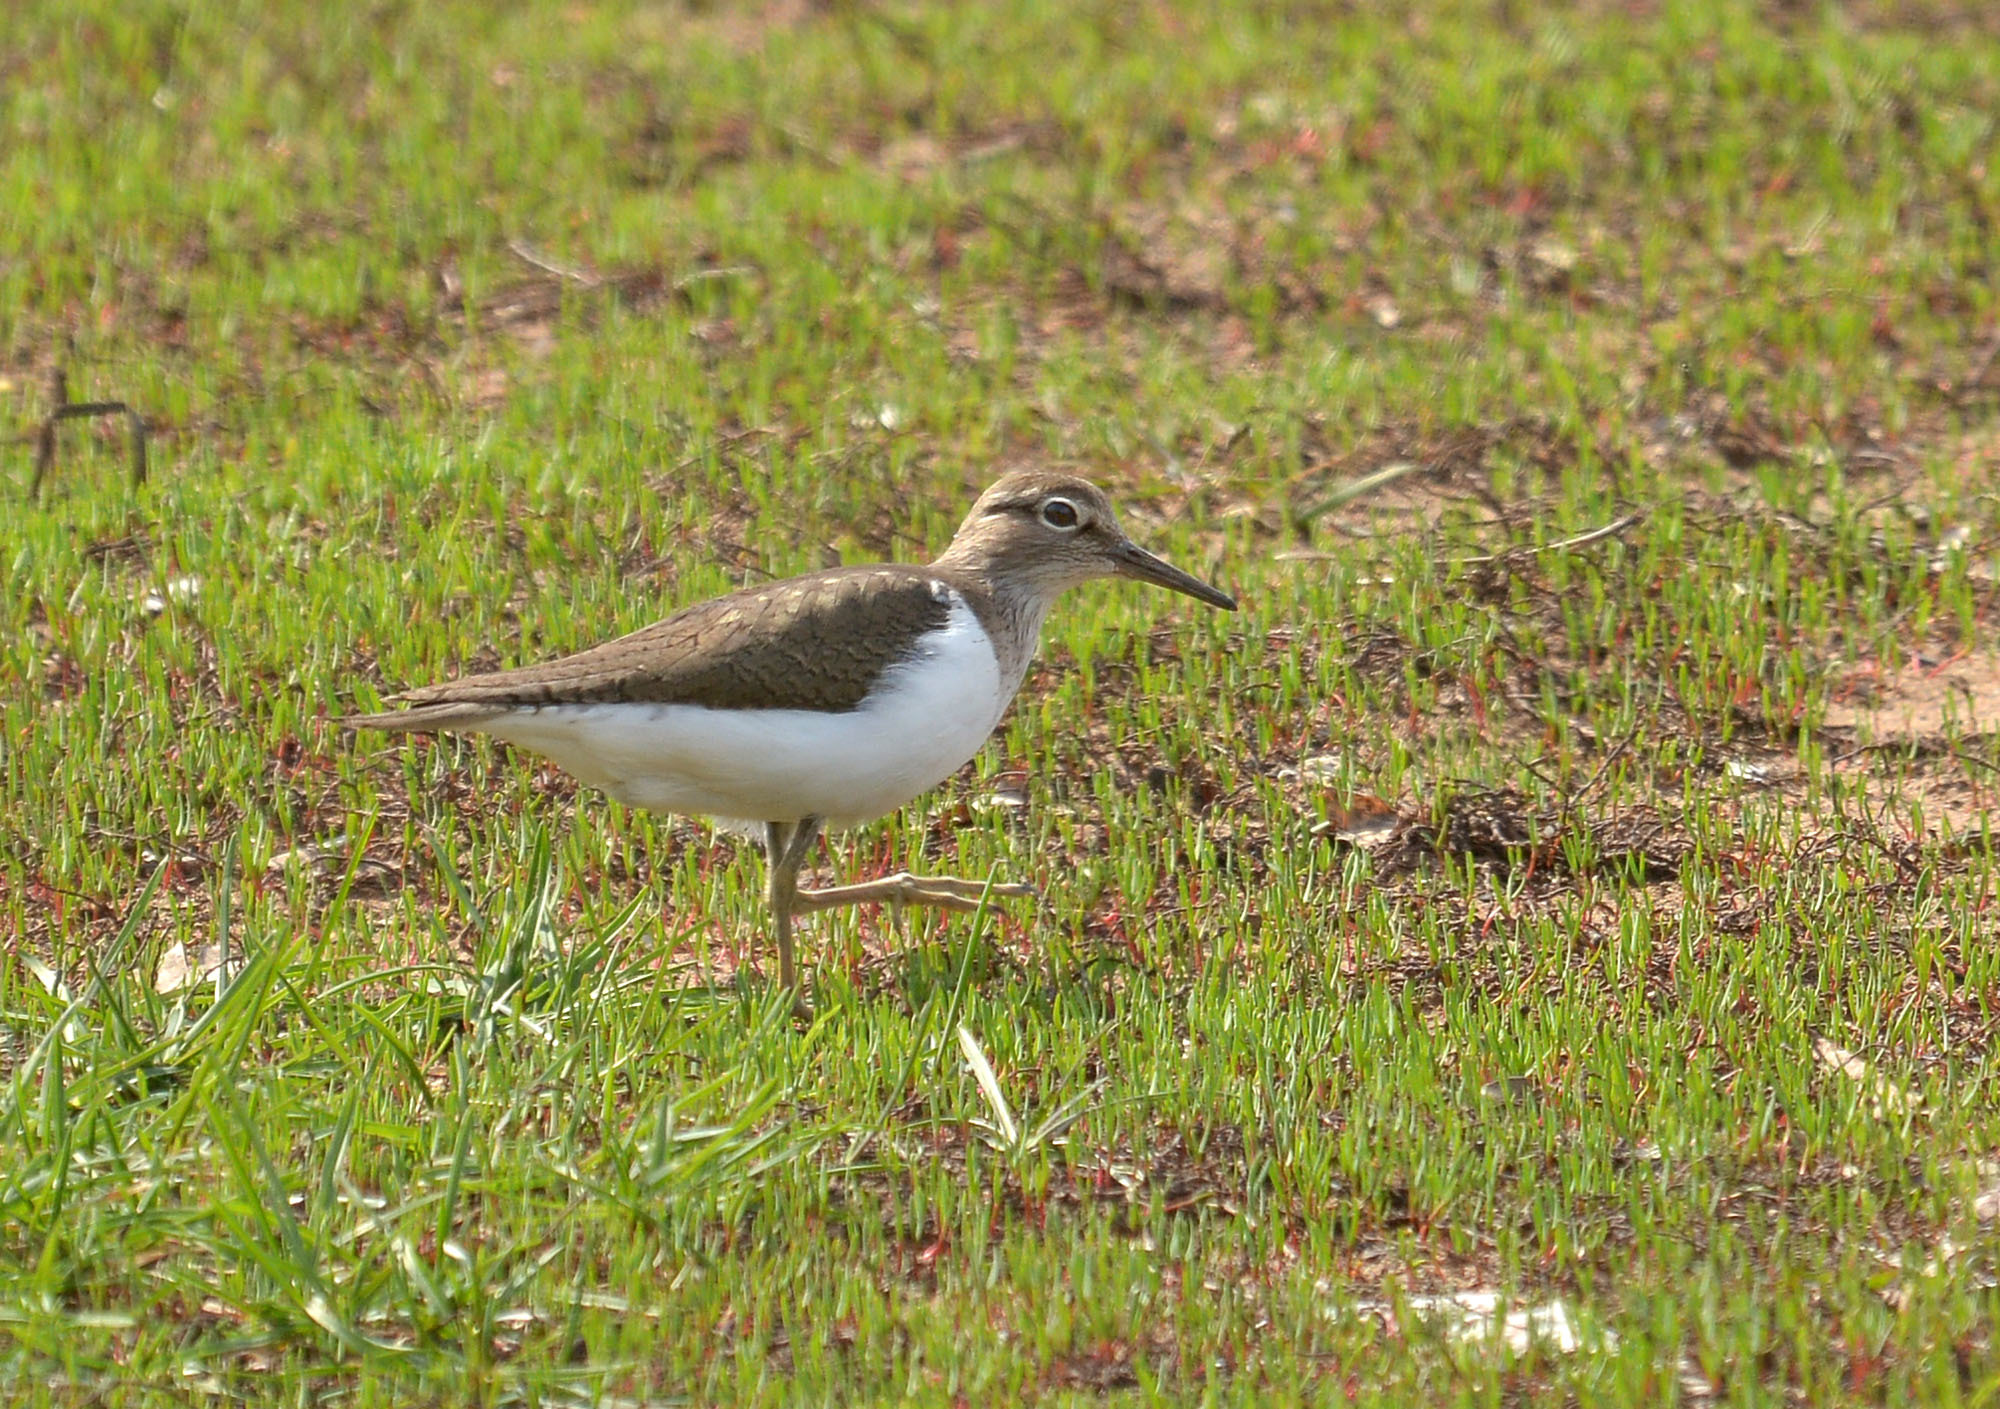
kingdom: Animalia
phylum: Chordata
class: Aves
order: Charadriiformes
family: Scolopacidae
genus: Actitis
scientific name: Actitis hypoleucos
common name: Common sandpiper
